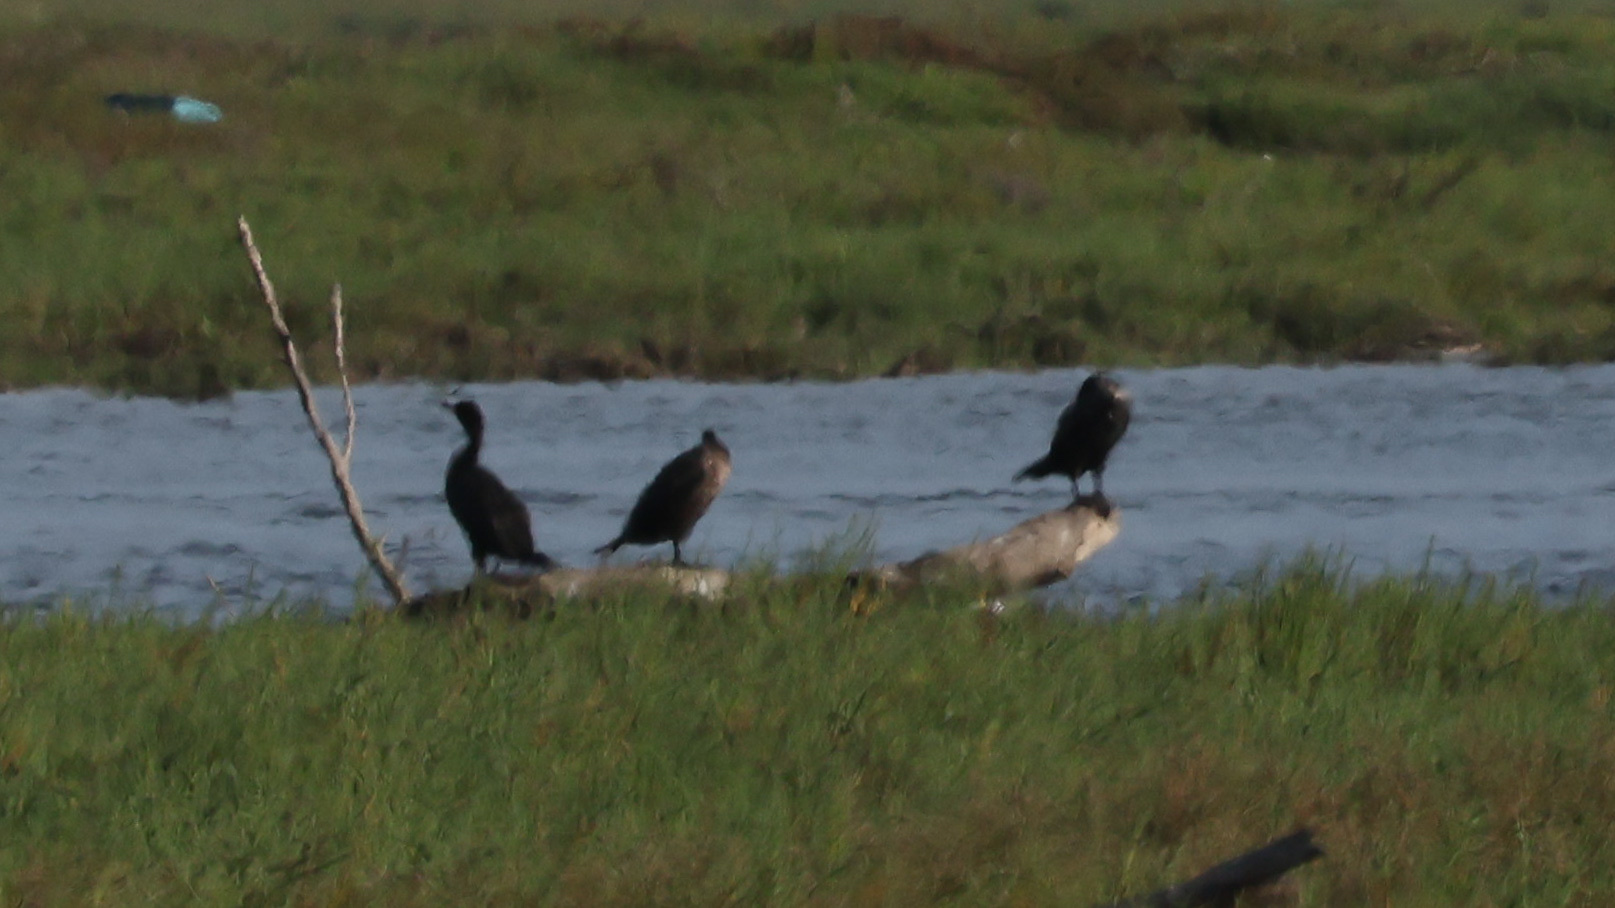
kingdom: Animalia
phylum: Chordata
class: Aves
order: Suliformes
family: Phalacrocoracidae
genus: Phalacrocorax
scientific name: Phalacrocorax auritus
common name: Double-crested cormorant
